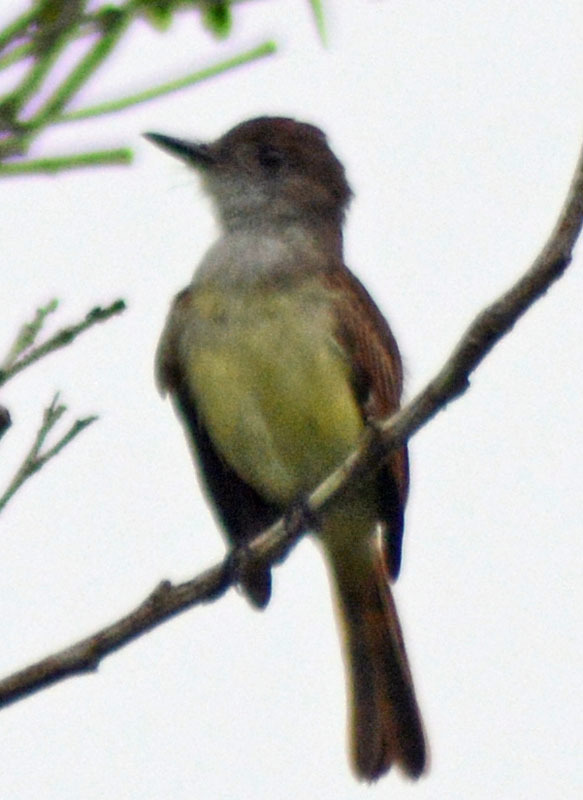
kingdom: Animalia
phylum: Chordata
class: Aves
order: Passeriformes
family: Tyrannidae
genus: Myiarchus
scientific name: Myiarchus tuberculifer
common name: Dusky-capped flycatcher
